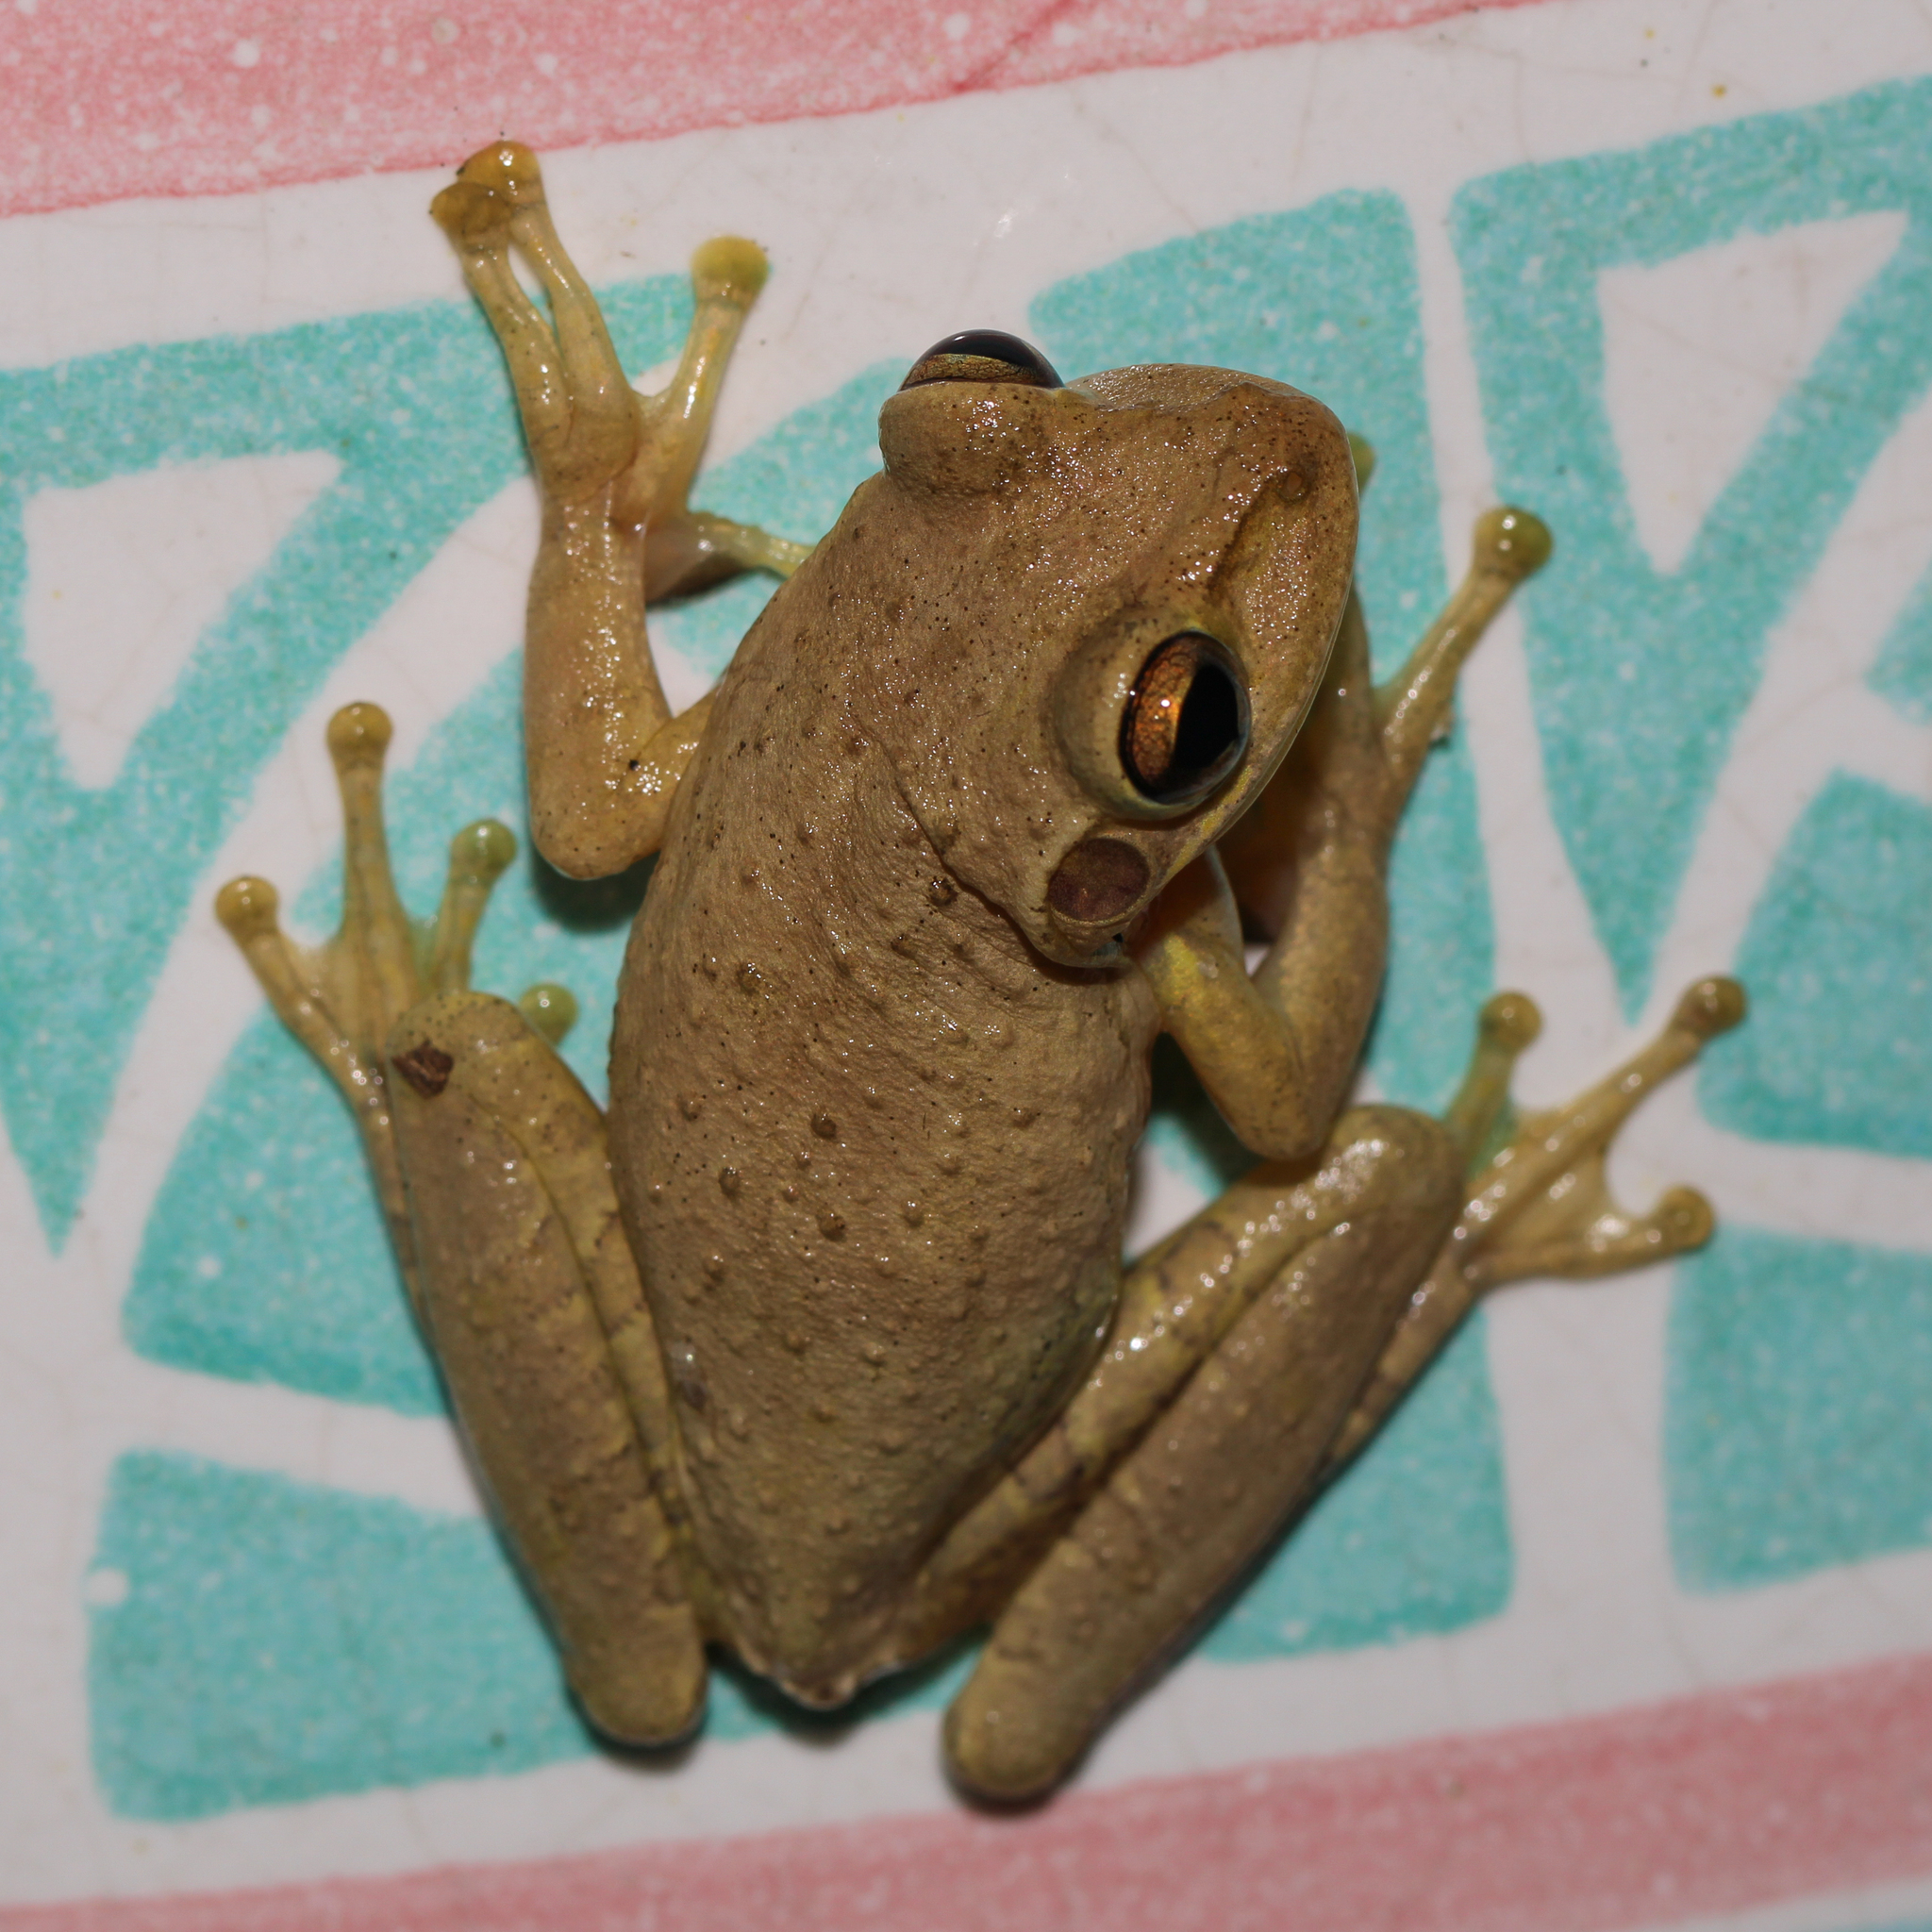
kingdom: Animalia
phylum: Chordata
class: Amphibia
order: Anura
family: Hylidae
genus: Osteopilus
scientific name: Osteopilus septentrionalis
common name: Cuban treefrog
